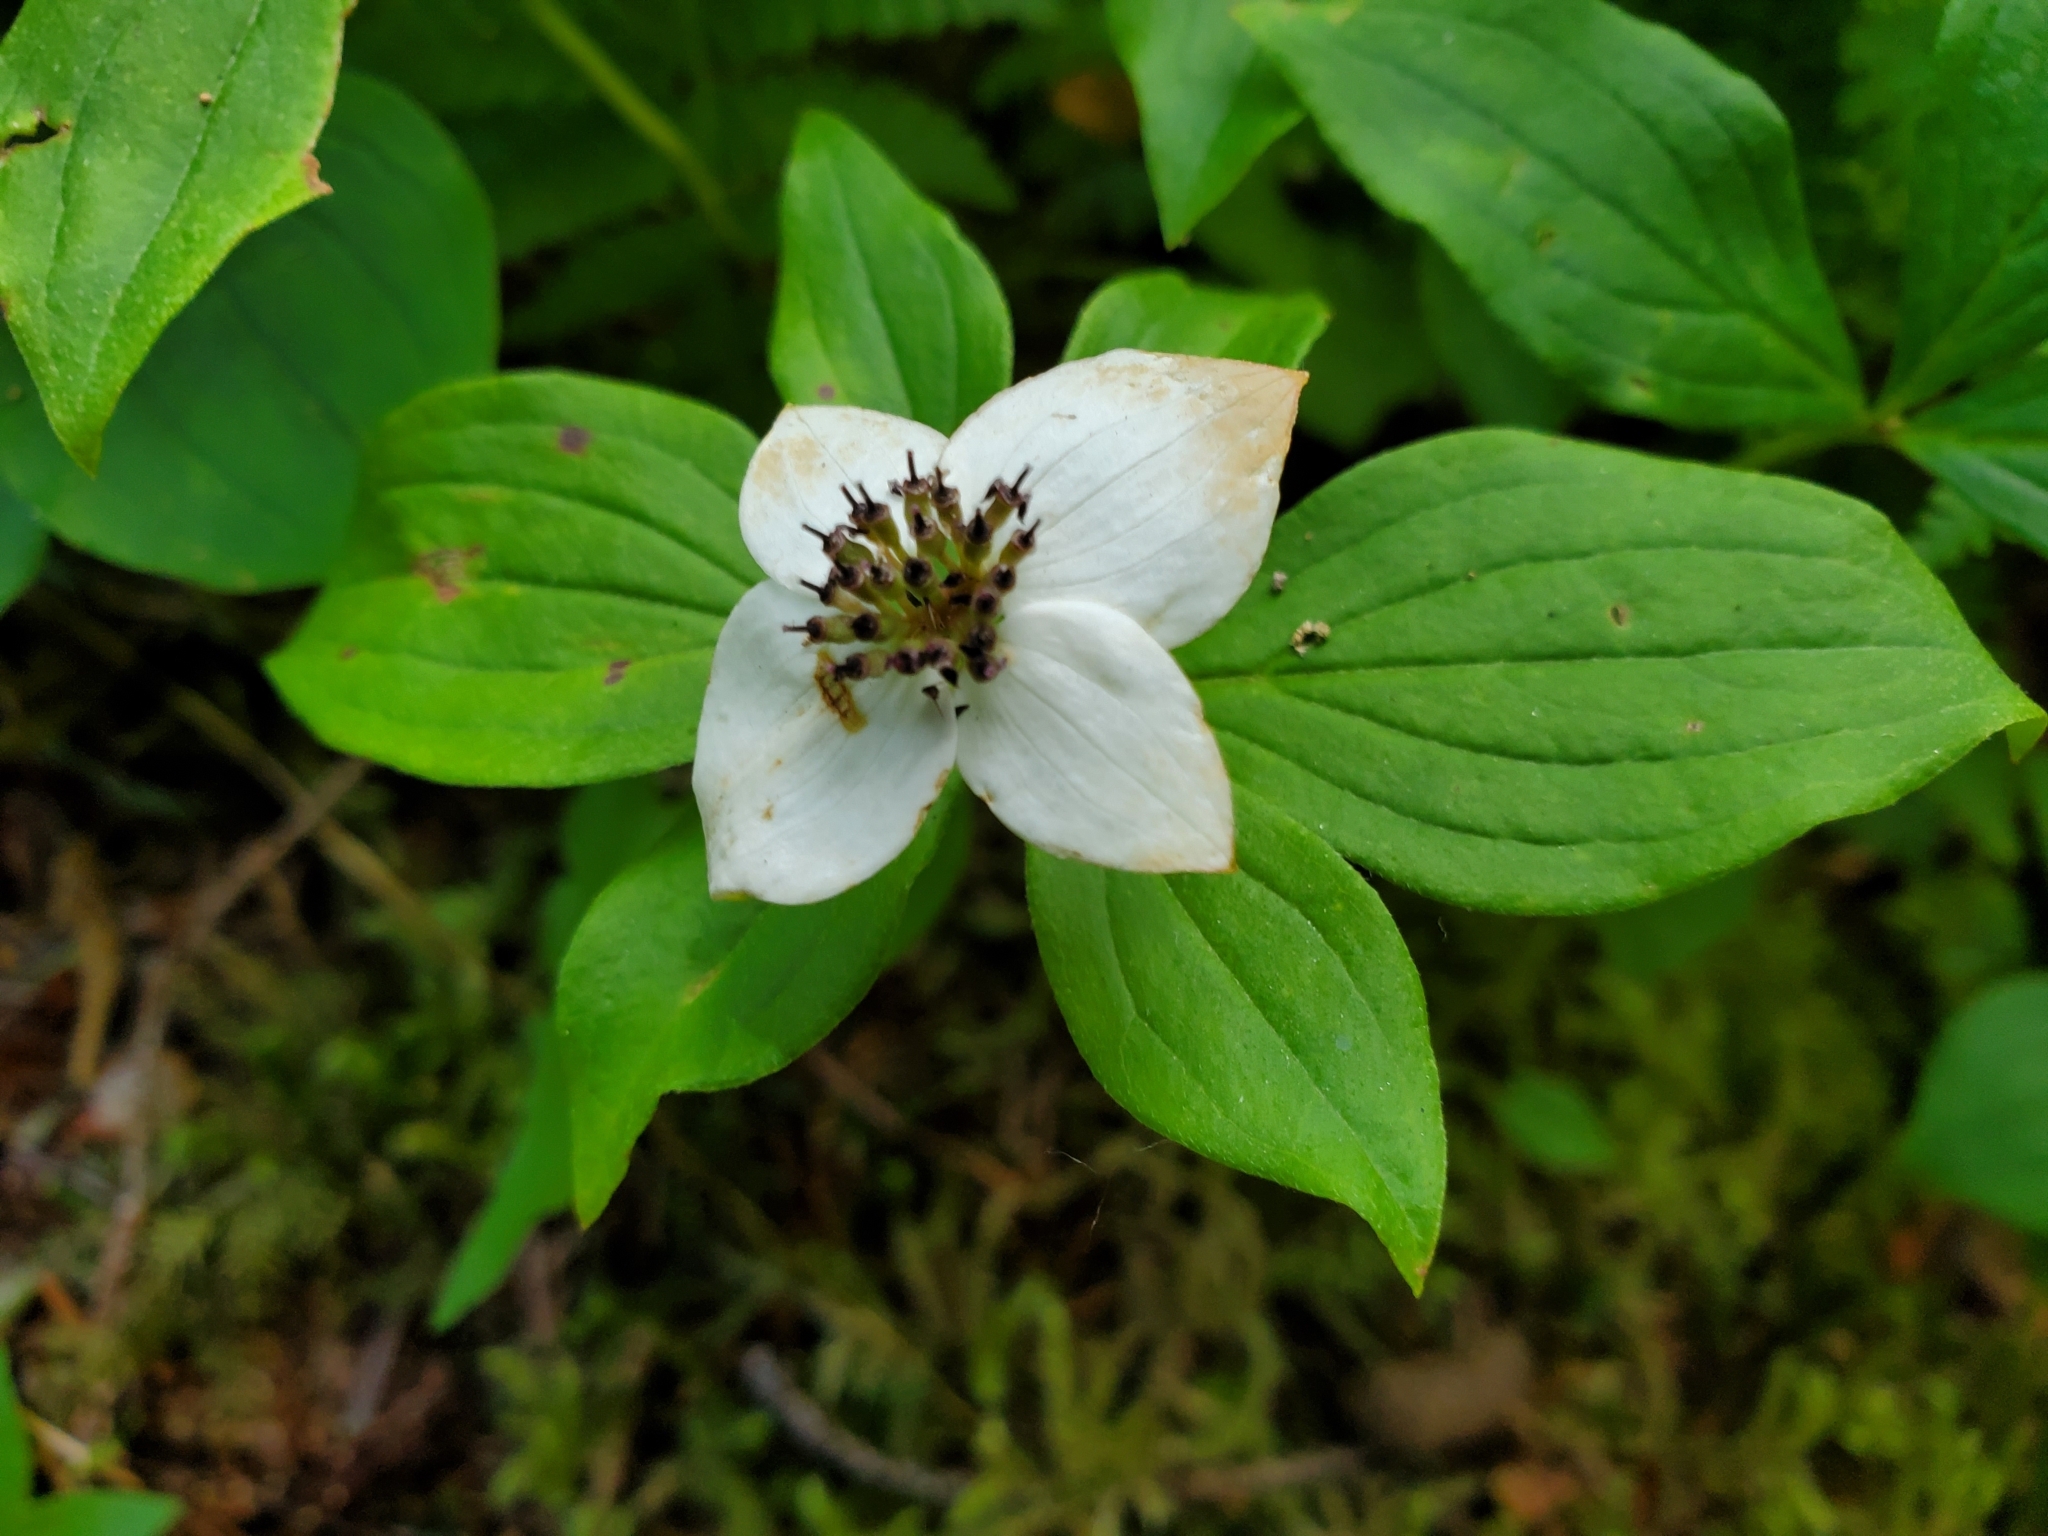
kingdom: Plantae
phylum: Tracheophyta
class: Magnoliopsida
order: Cornales
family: Cornaceae
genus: Cornus
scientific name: Cornus unalaschkensis
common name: Alaska bunchberry
